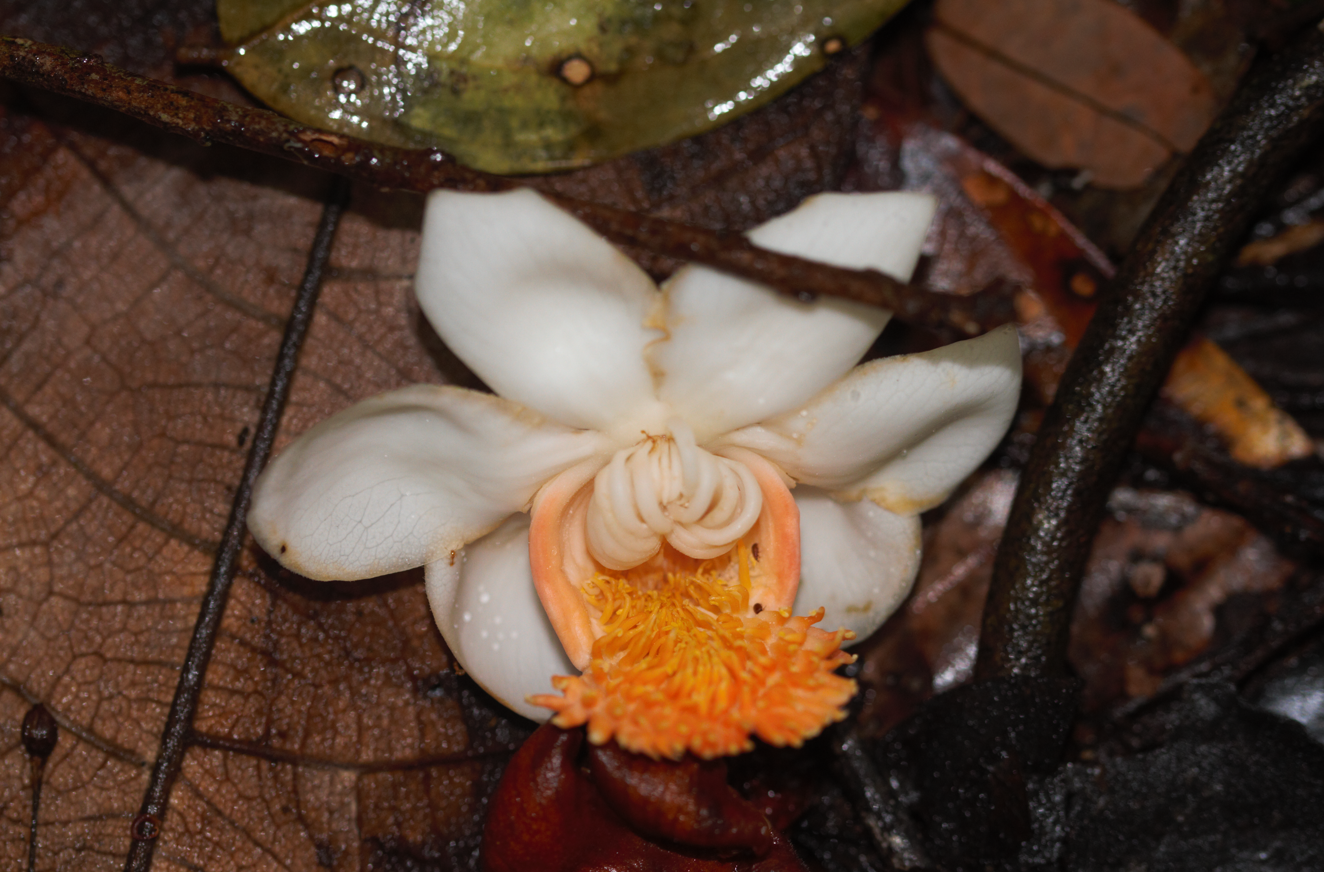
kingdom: Plantae
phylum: Tracheophyta
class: Magnoliopsida
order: Ericales
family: Lecythidaceae
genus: Lecythis
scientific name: Lecythis persistens
